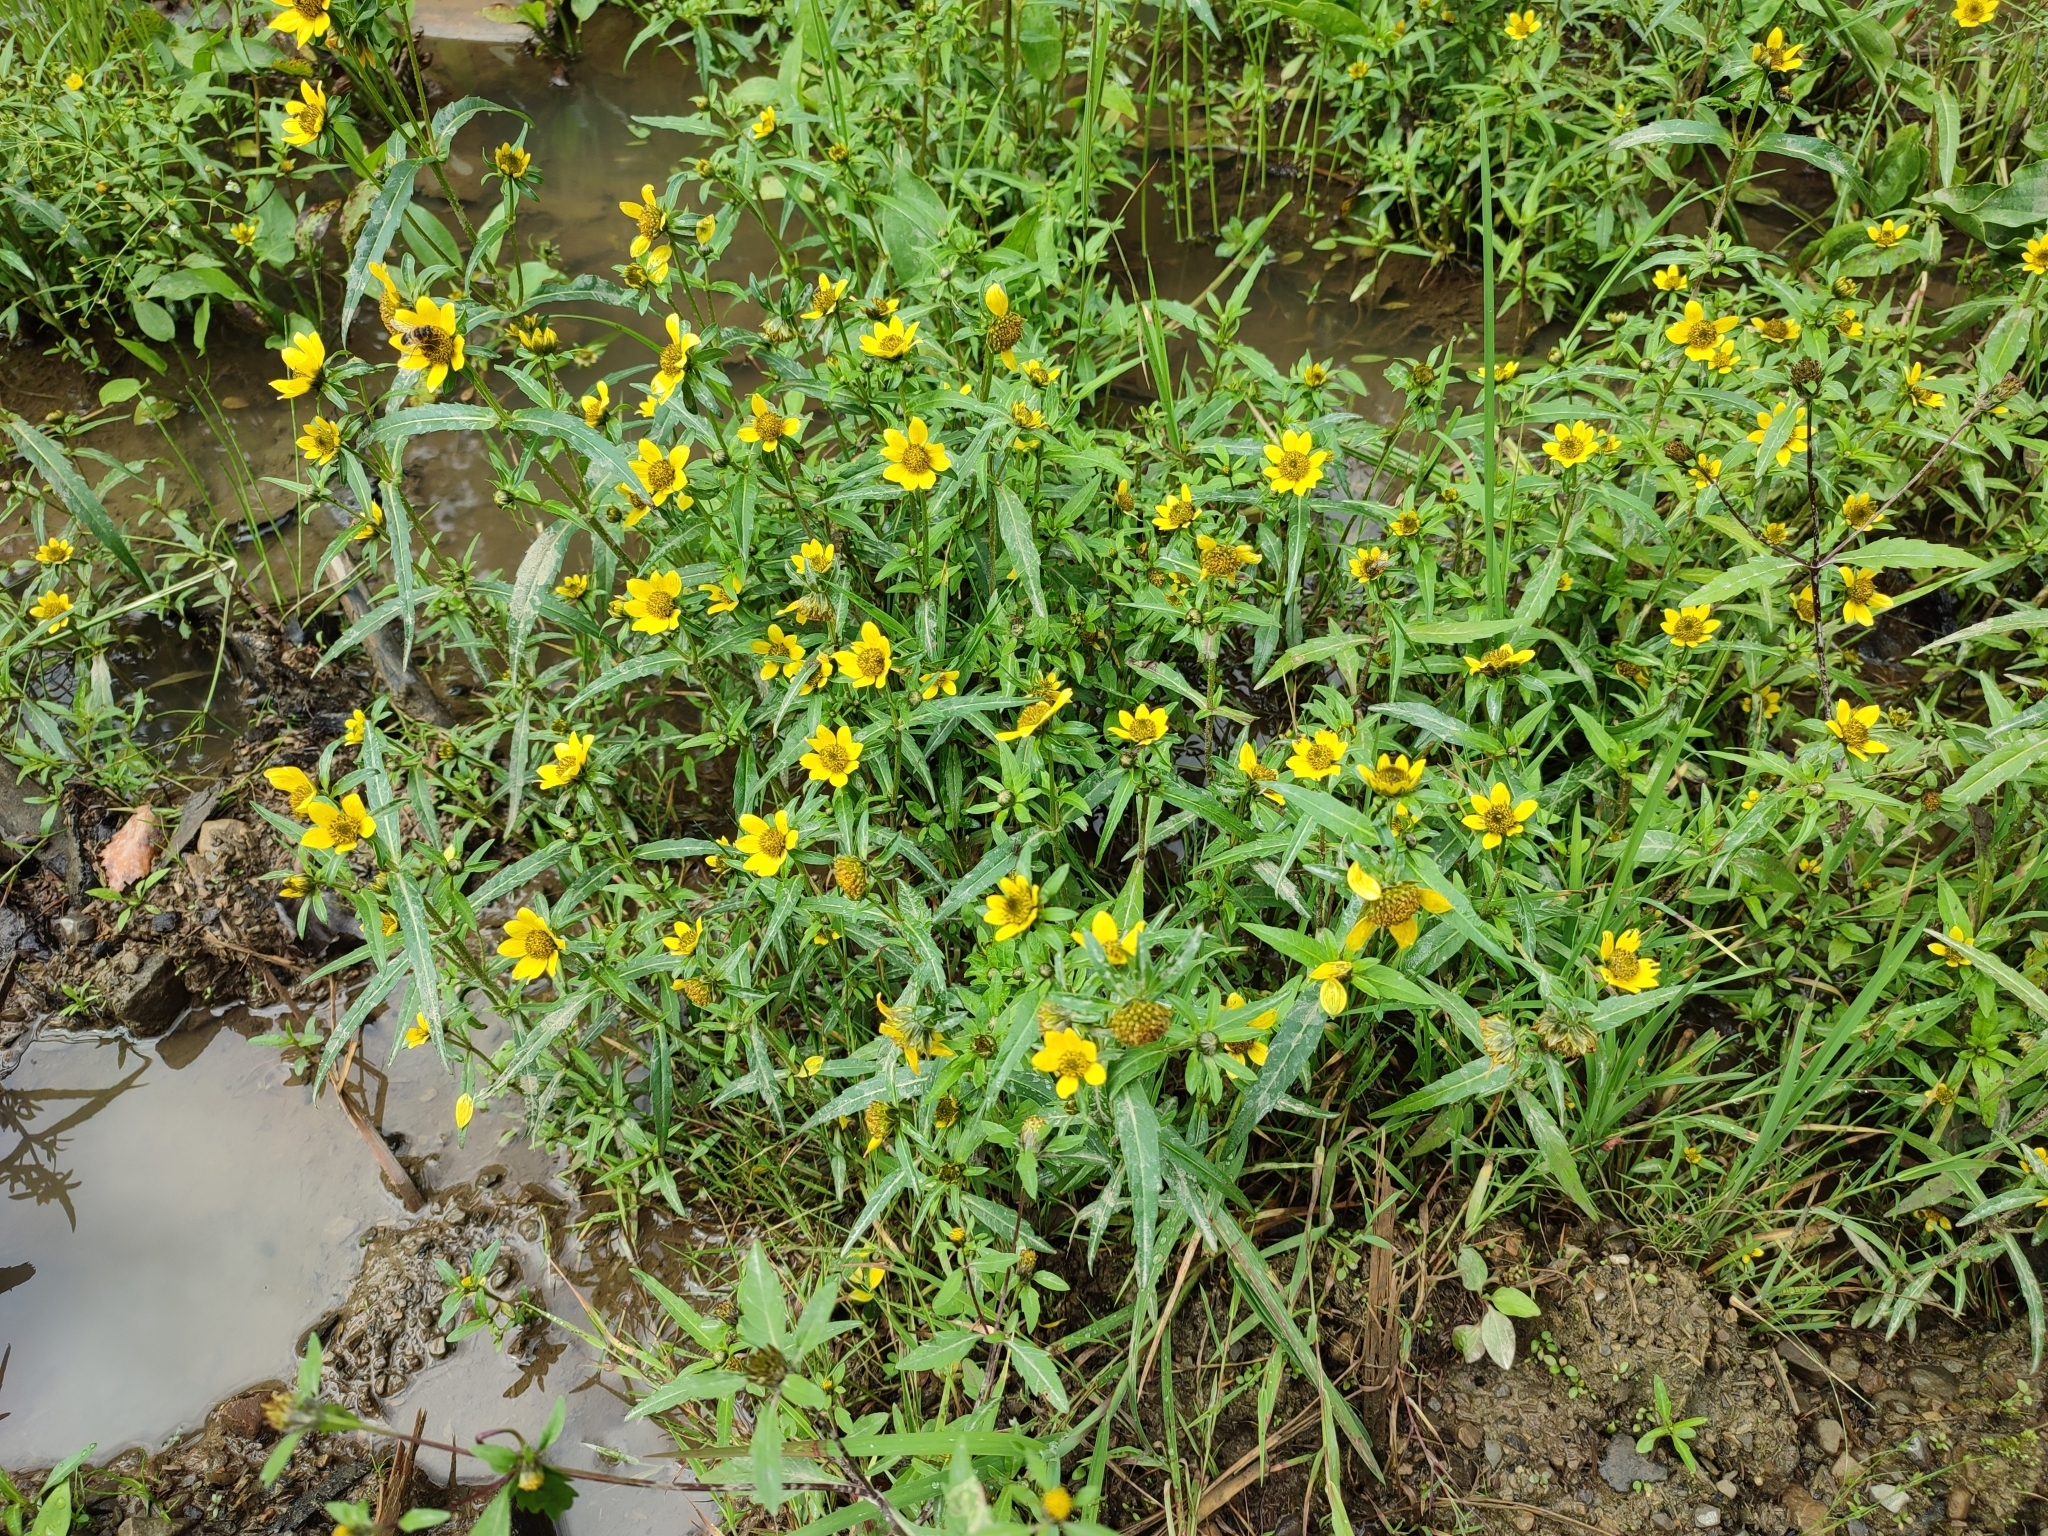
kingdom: Plantae
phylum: Tracheophyta
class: Magnoliopsida
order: Asterales
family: Asteraceae
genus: Bidens
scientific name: Bidens cernua
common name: Nodding bur-marigold
